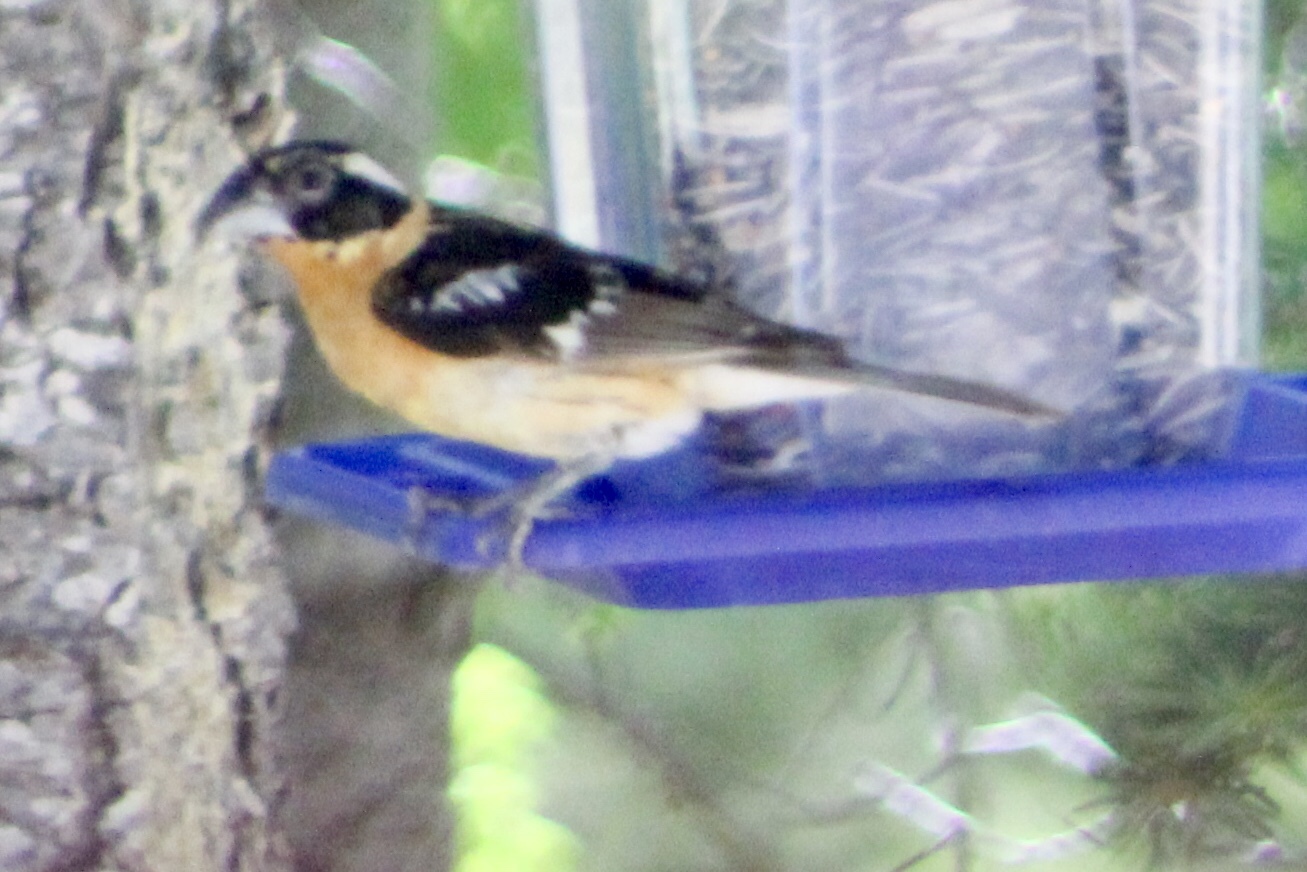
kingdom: Animalia
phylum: Chordata
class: Aves
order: Passeriformes
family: Cardinalidae
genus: Pheucticus
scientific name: Pheucticus melanocephalus
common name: Black-headed grosbeak
